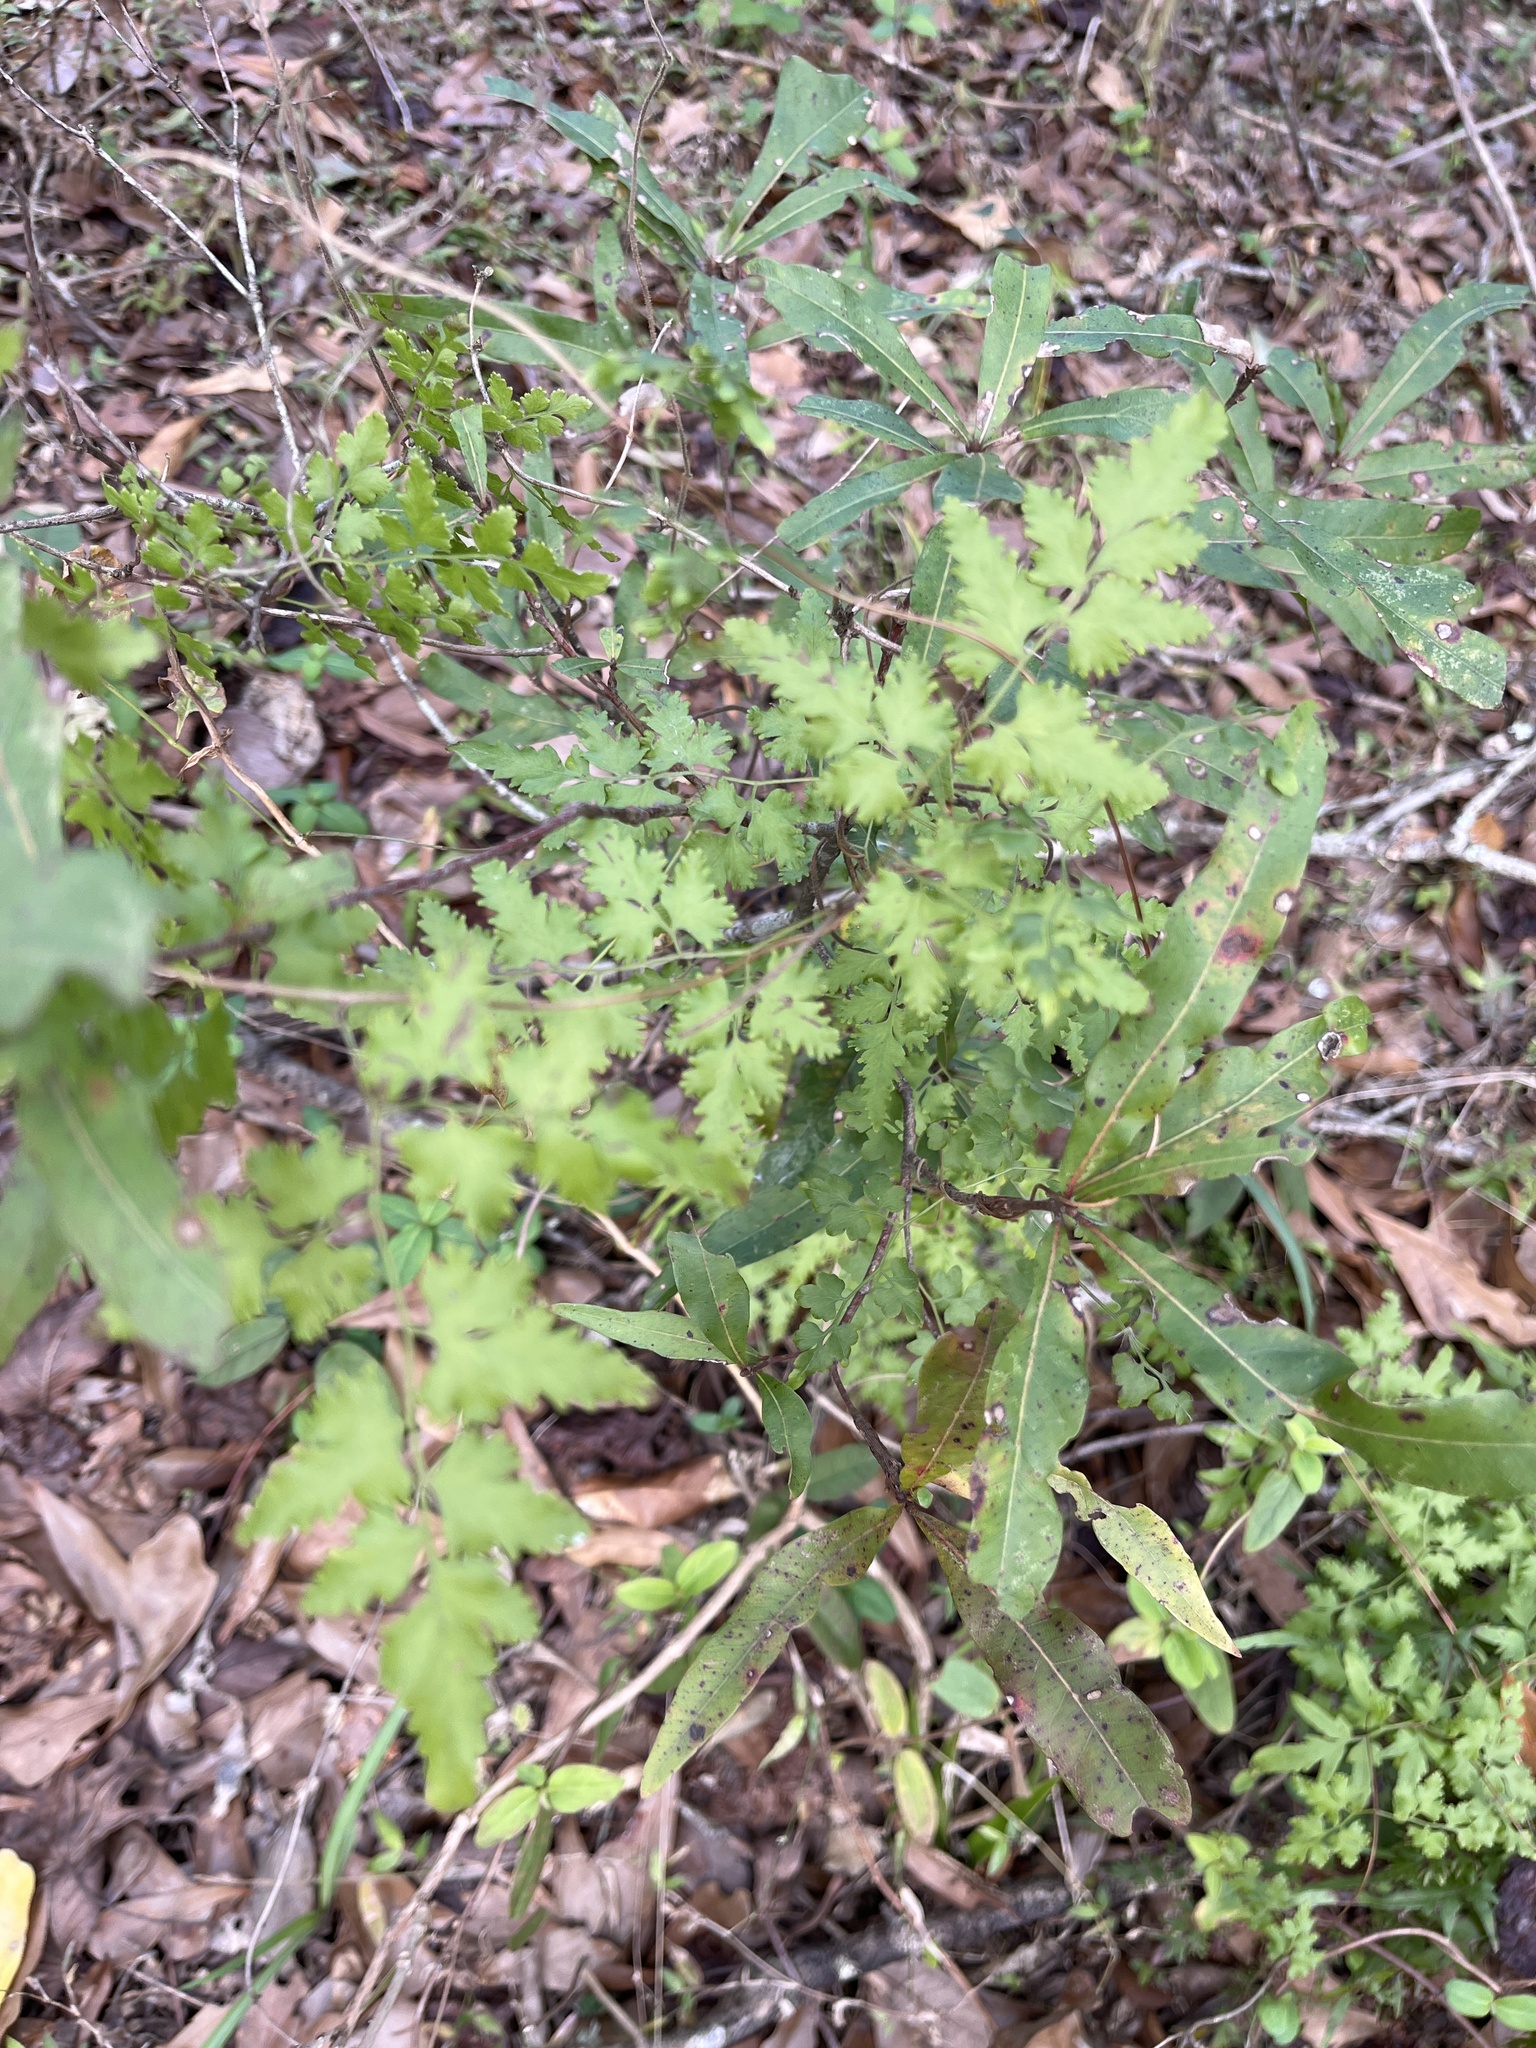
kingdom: Plantae
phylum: Tracheophyta
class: Polypodiopsida
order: Schizaeales
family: Lygodiaceae
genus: Lygodium
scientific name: Lygodium japonicum
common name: Japanese climbing fern
